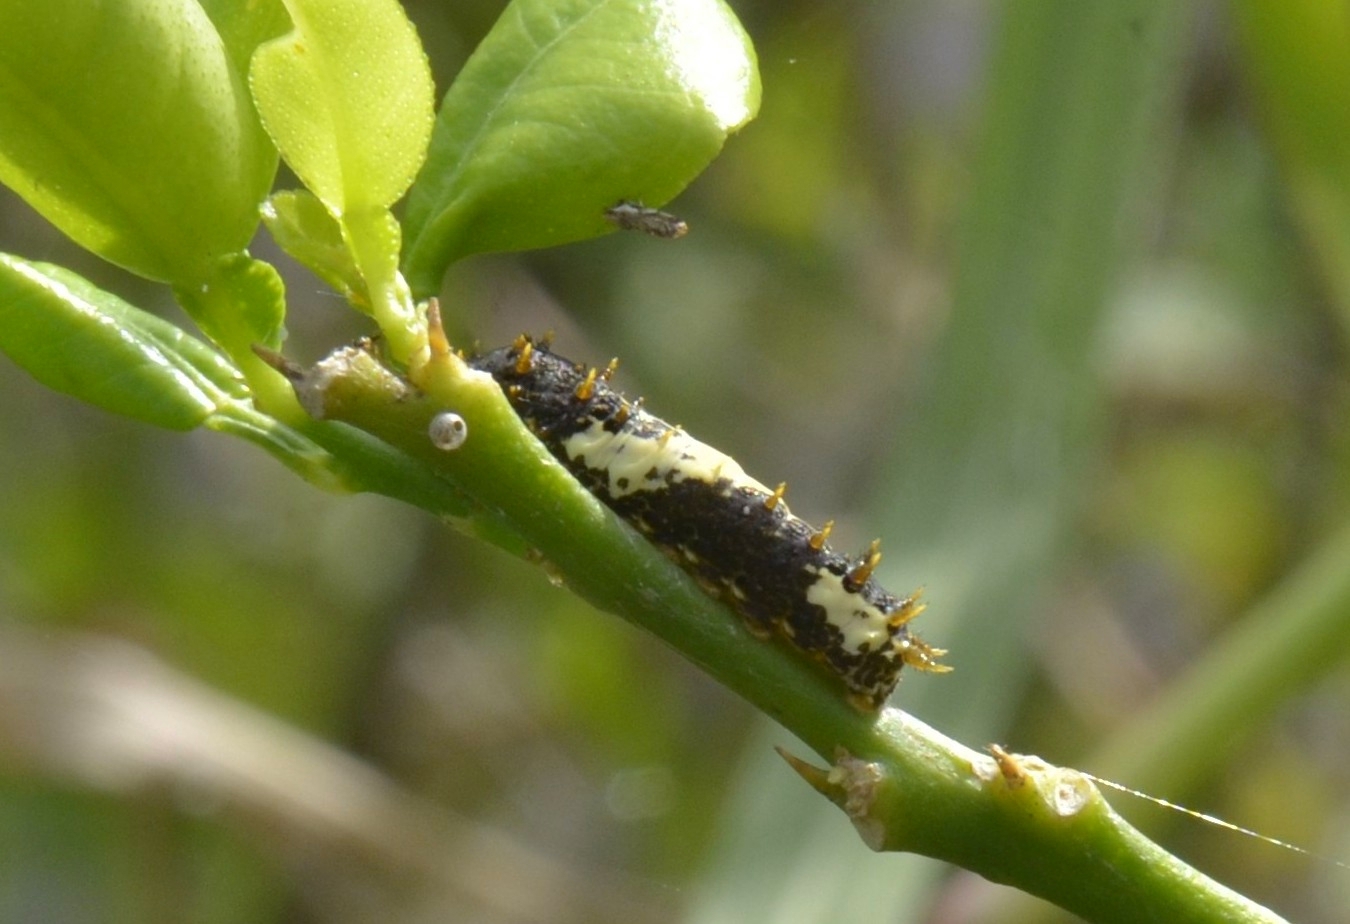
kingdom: Animalia
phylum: Arthropoda
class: Insecta
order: Lepidoptera
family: Papilionidae
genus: Papilio
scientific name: Papilio demoleus
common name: Lime butterfly
